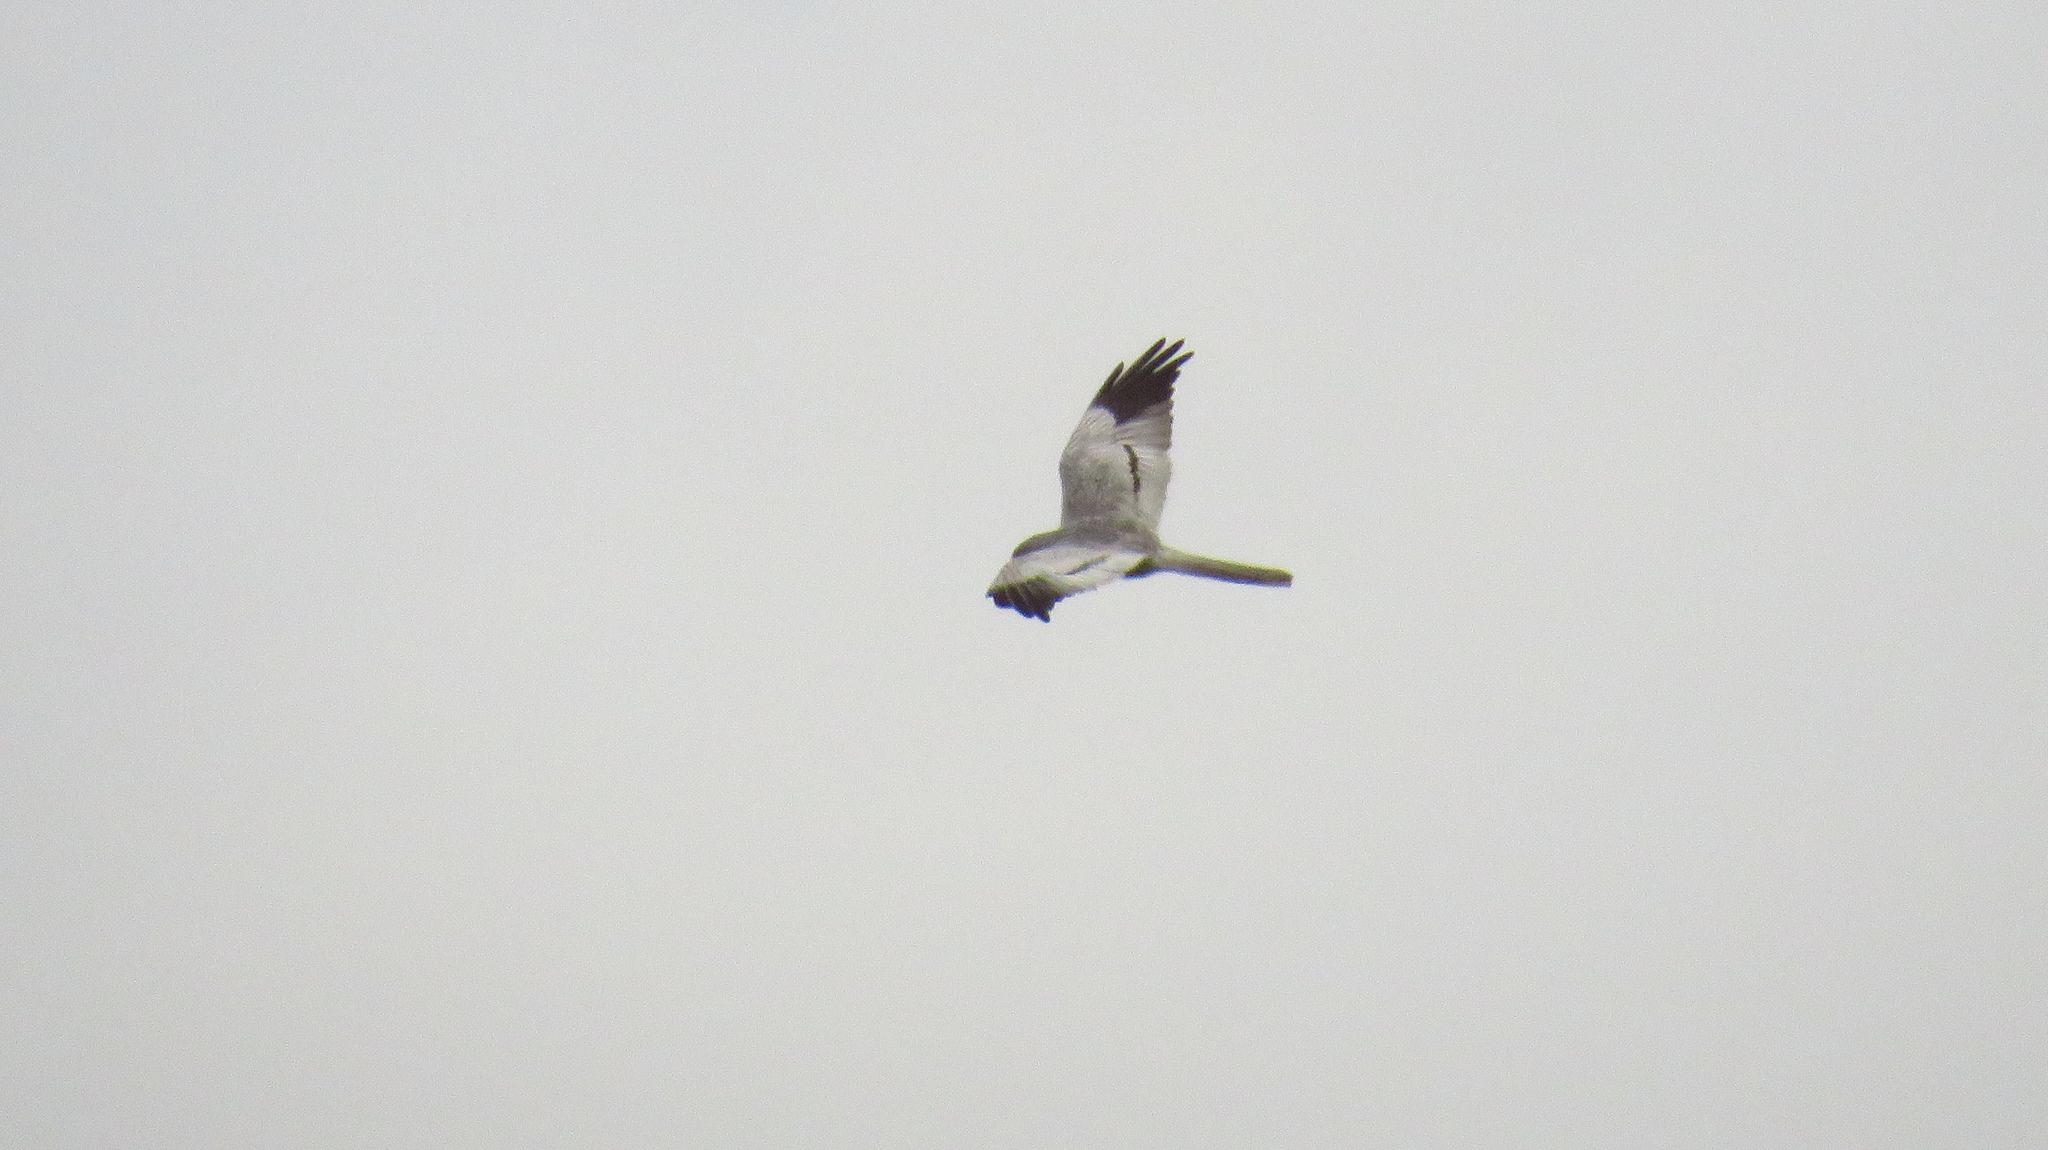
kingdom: Animalia
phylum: Chordata
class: Aves
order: Accipitriformes
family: Accipitridae
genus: Circus
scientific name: Circus pygargus
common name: Montagu's harrier
